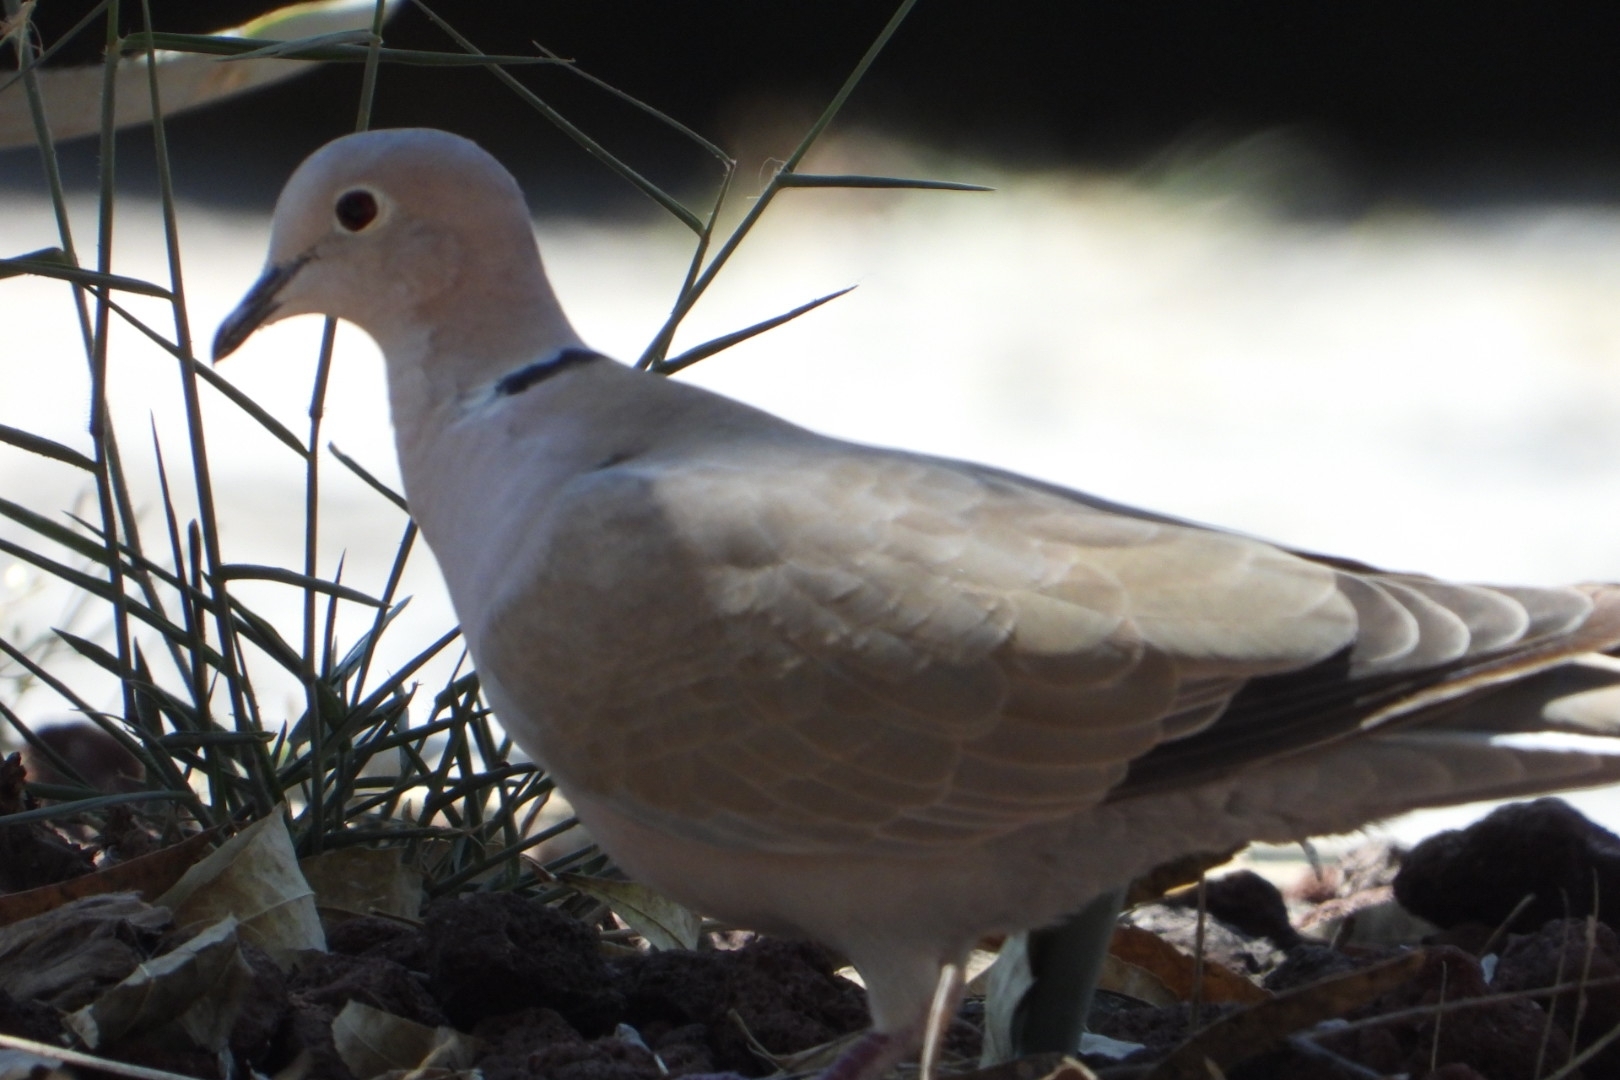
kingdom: Animalia
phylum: Chordata
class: Aves
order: Columbiformes
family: Columbidae
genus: Streptopelia
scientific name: Streptopelia decaocto
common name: Eurasian collared dove
